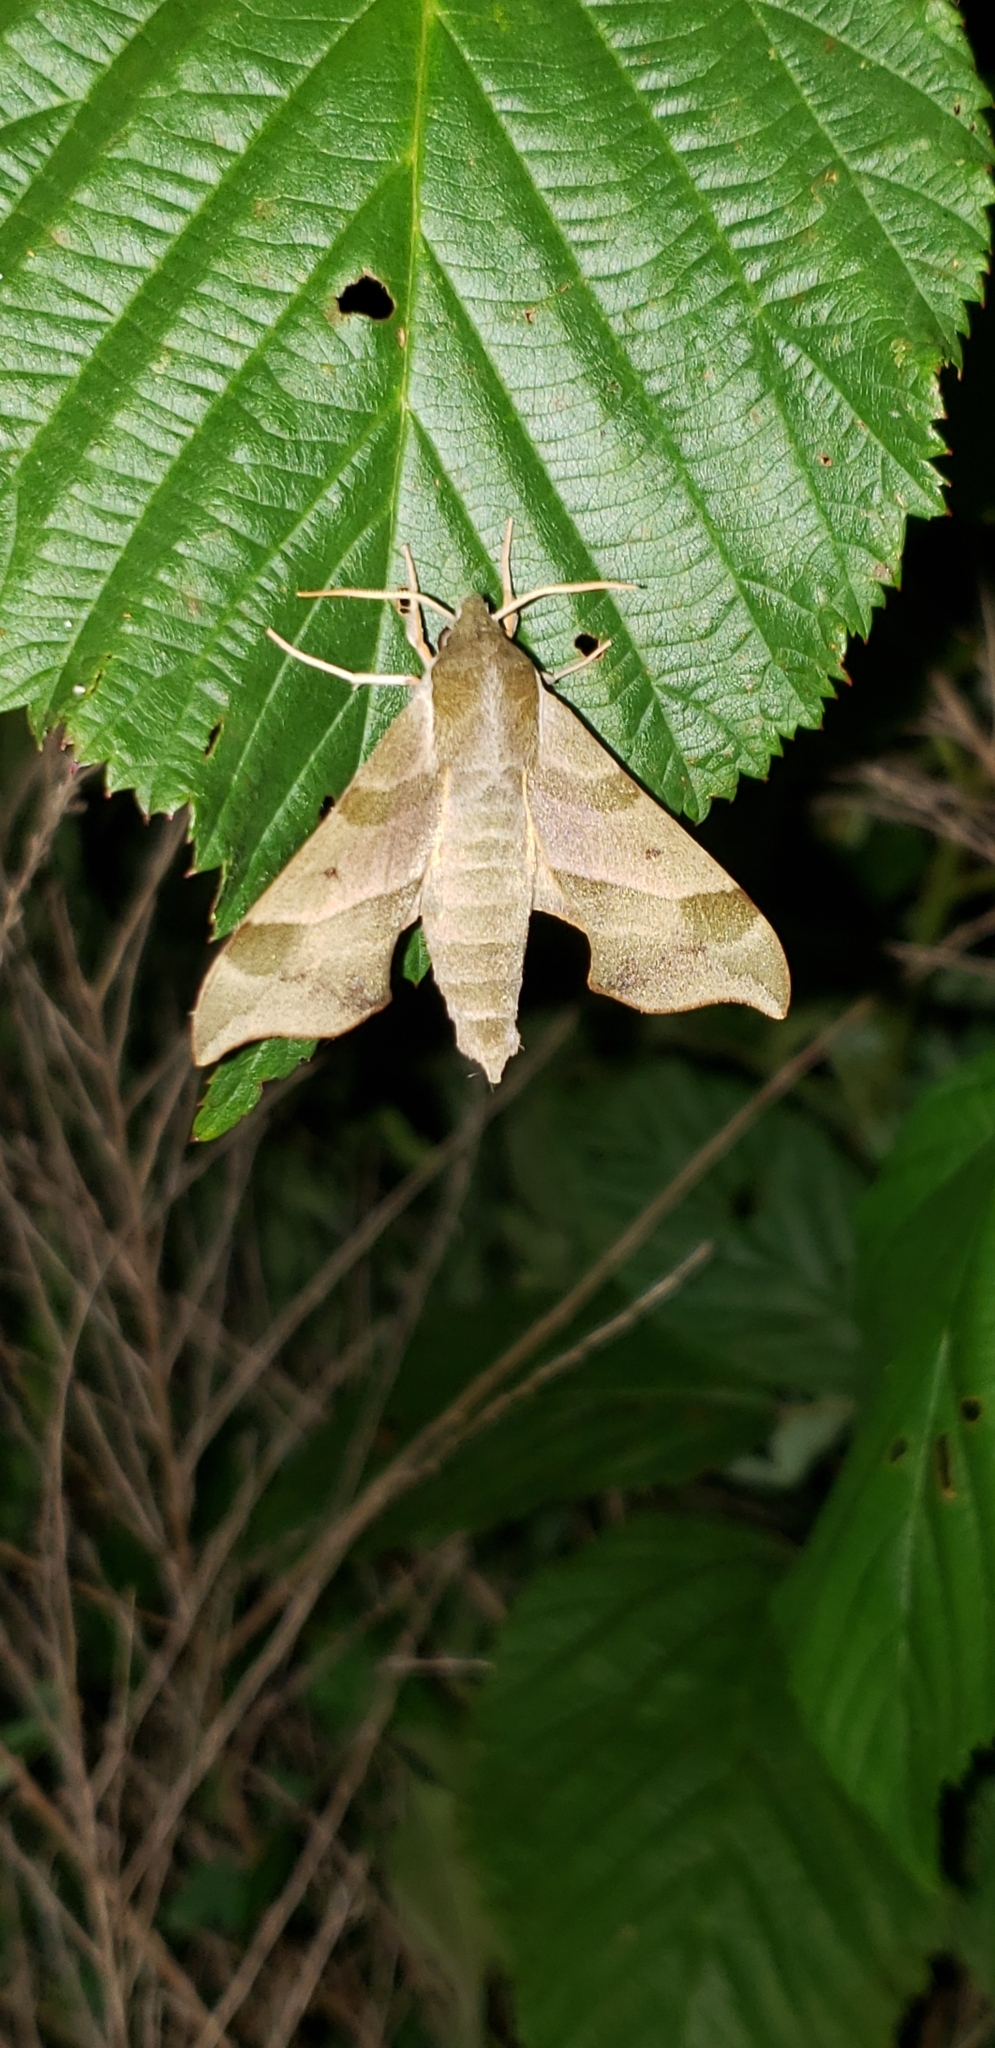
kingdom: Animalia
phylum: Arthropoda
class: Insecta
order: Lepidoptera
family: Sphingidae
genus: Darapsa
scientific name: Darapsa myron
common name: Hog sphinx
